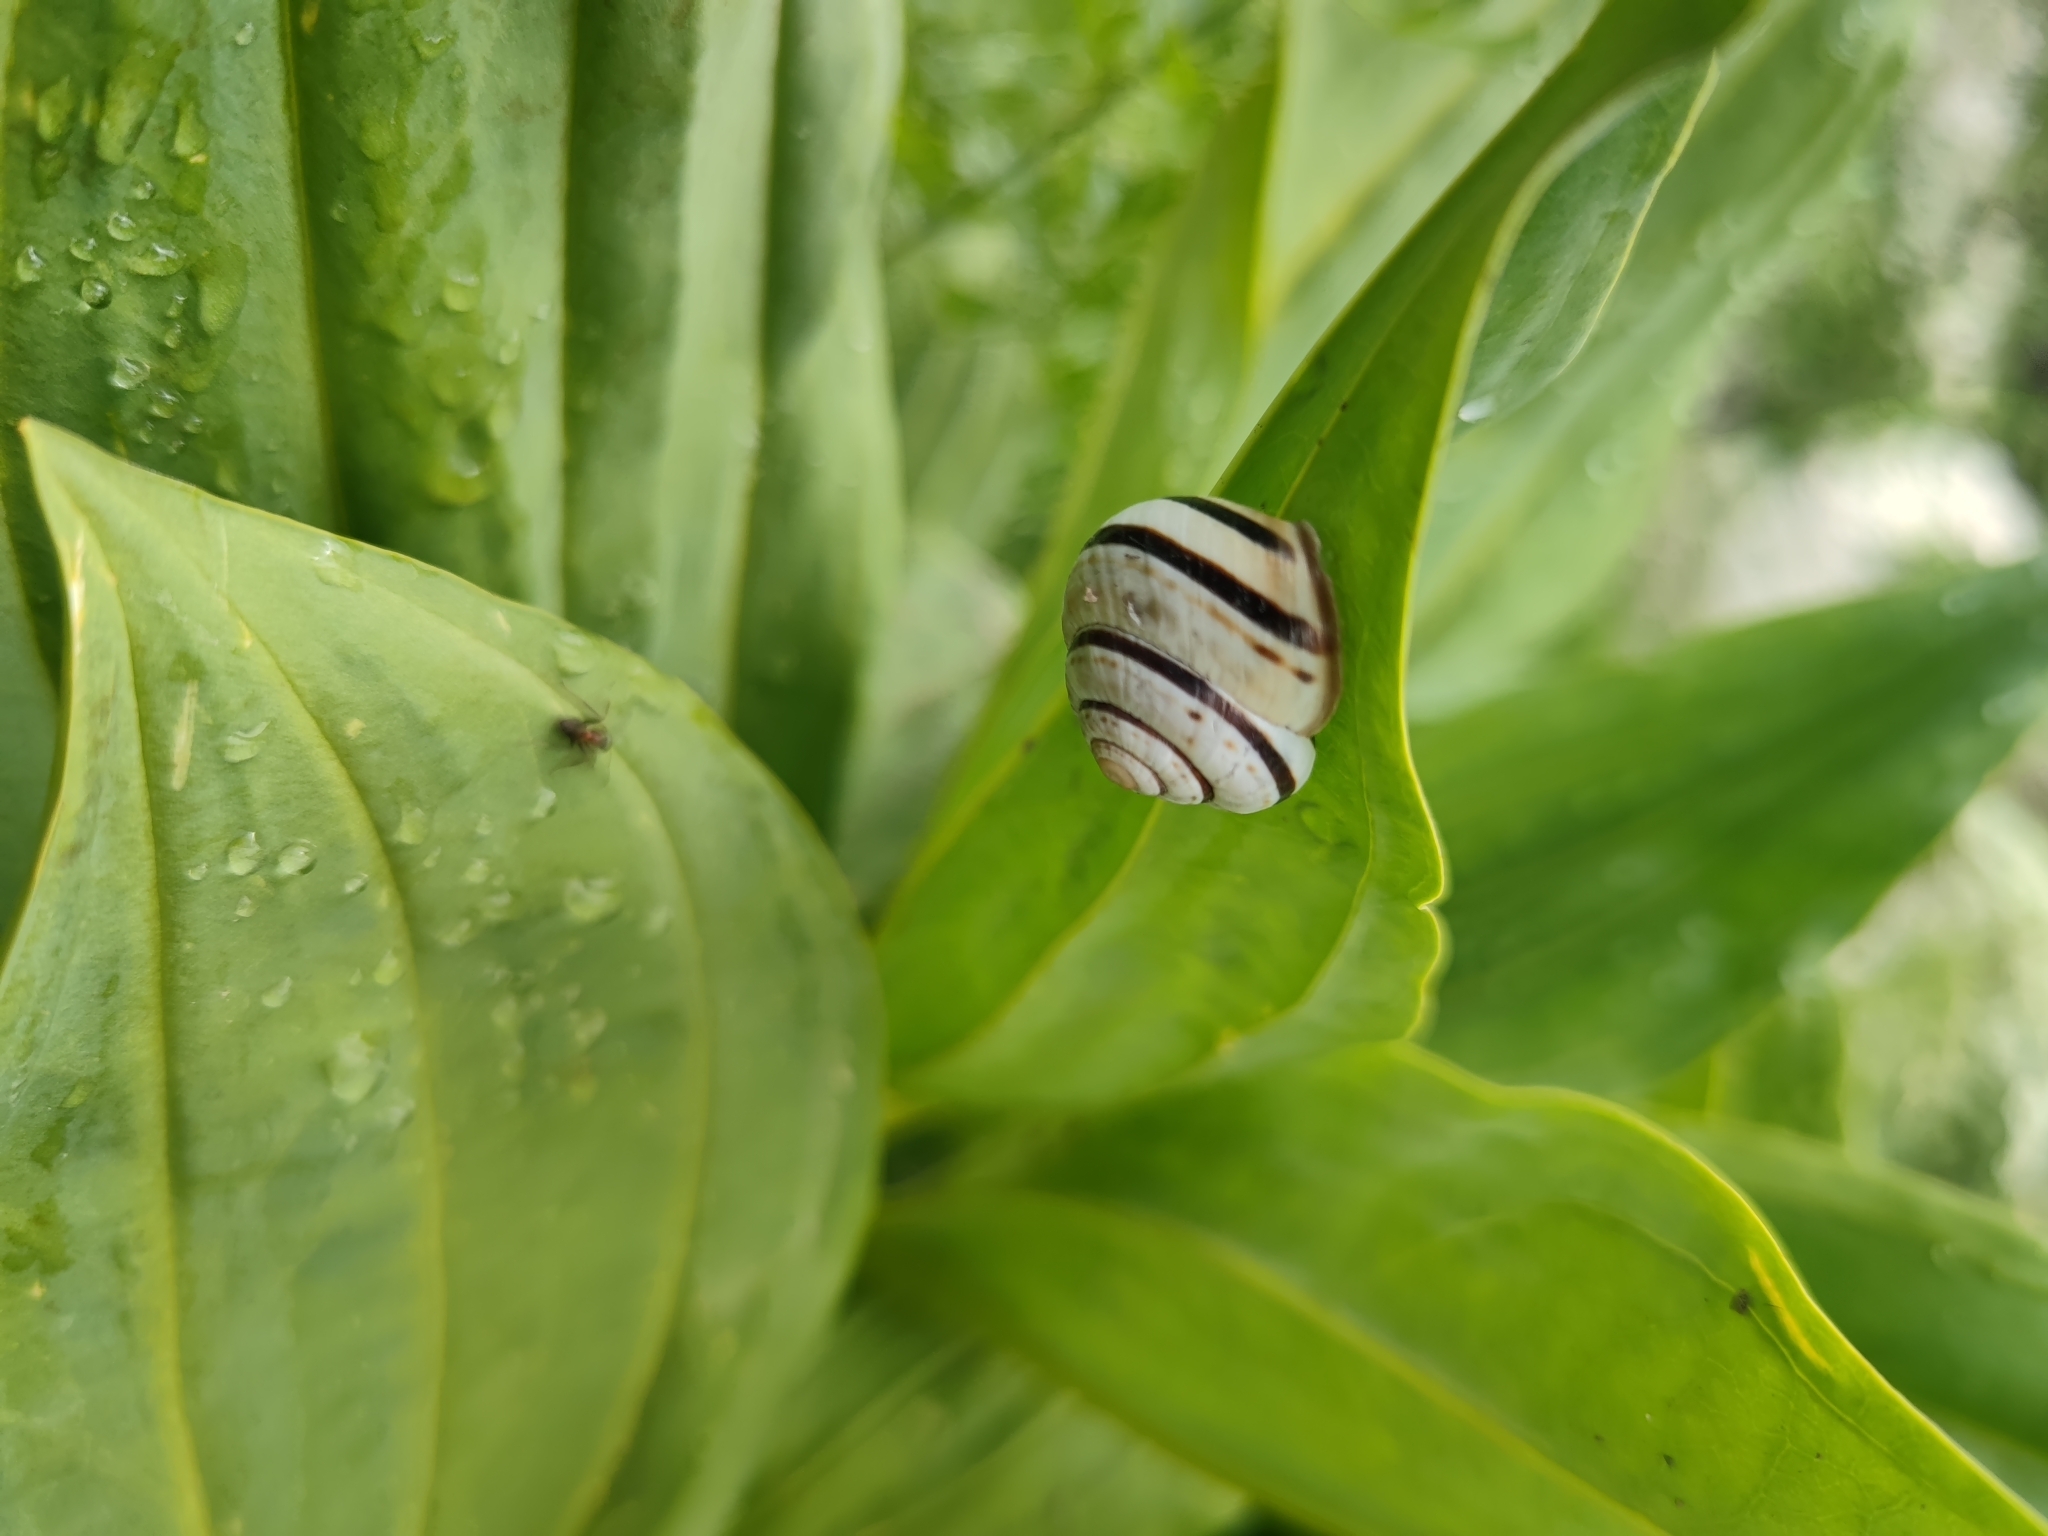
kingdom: Animalia
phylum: Mollusca
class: Gastropoda
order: Stylommatophora
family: Helicidae
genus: Macularia
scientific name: Macularia sylvatica
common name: Hélice sylvatique
